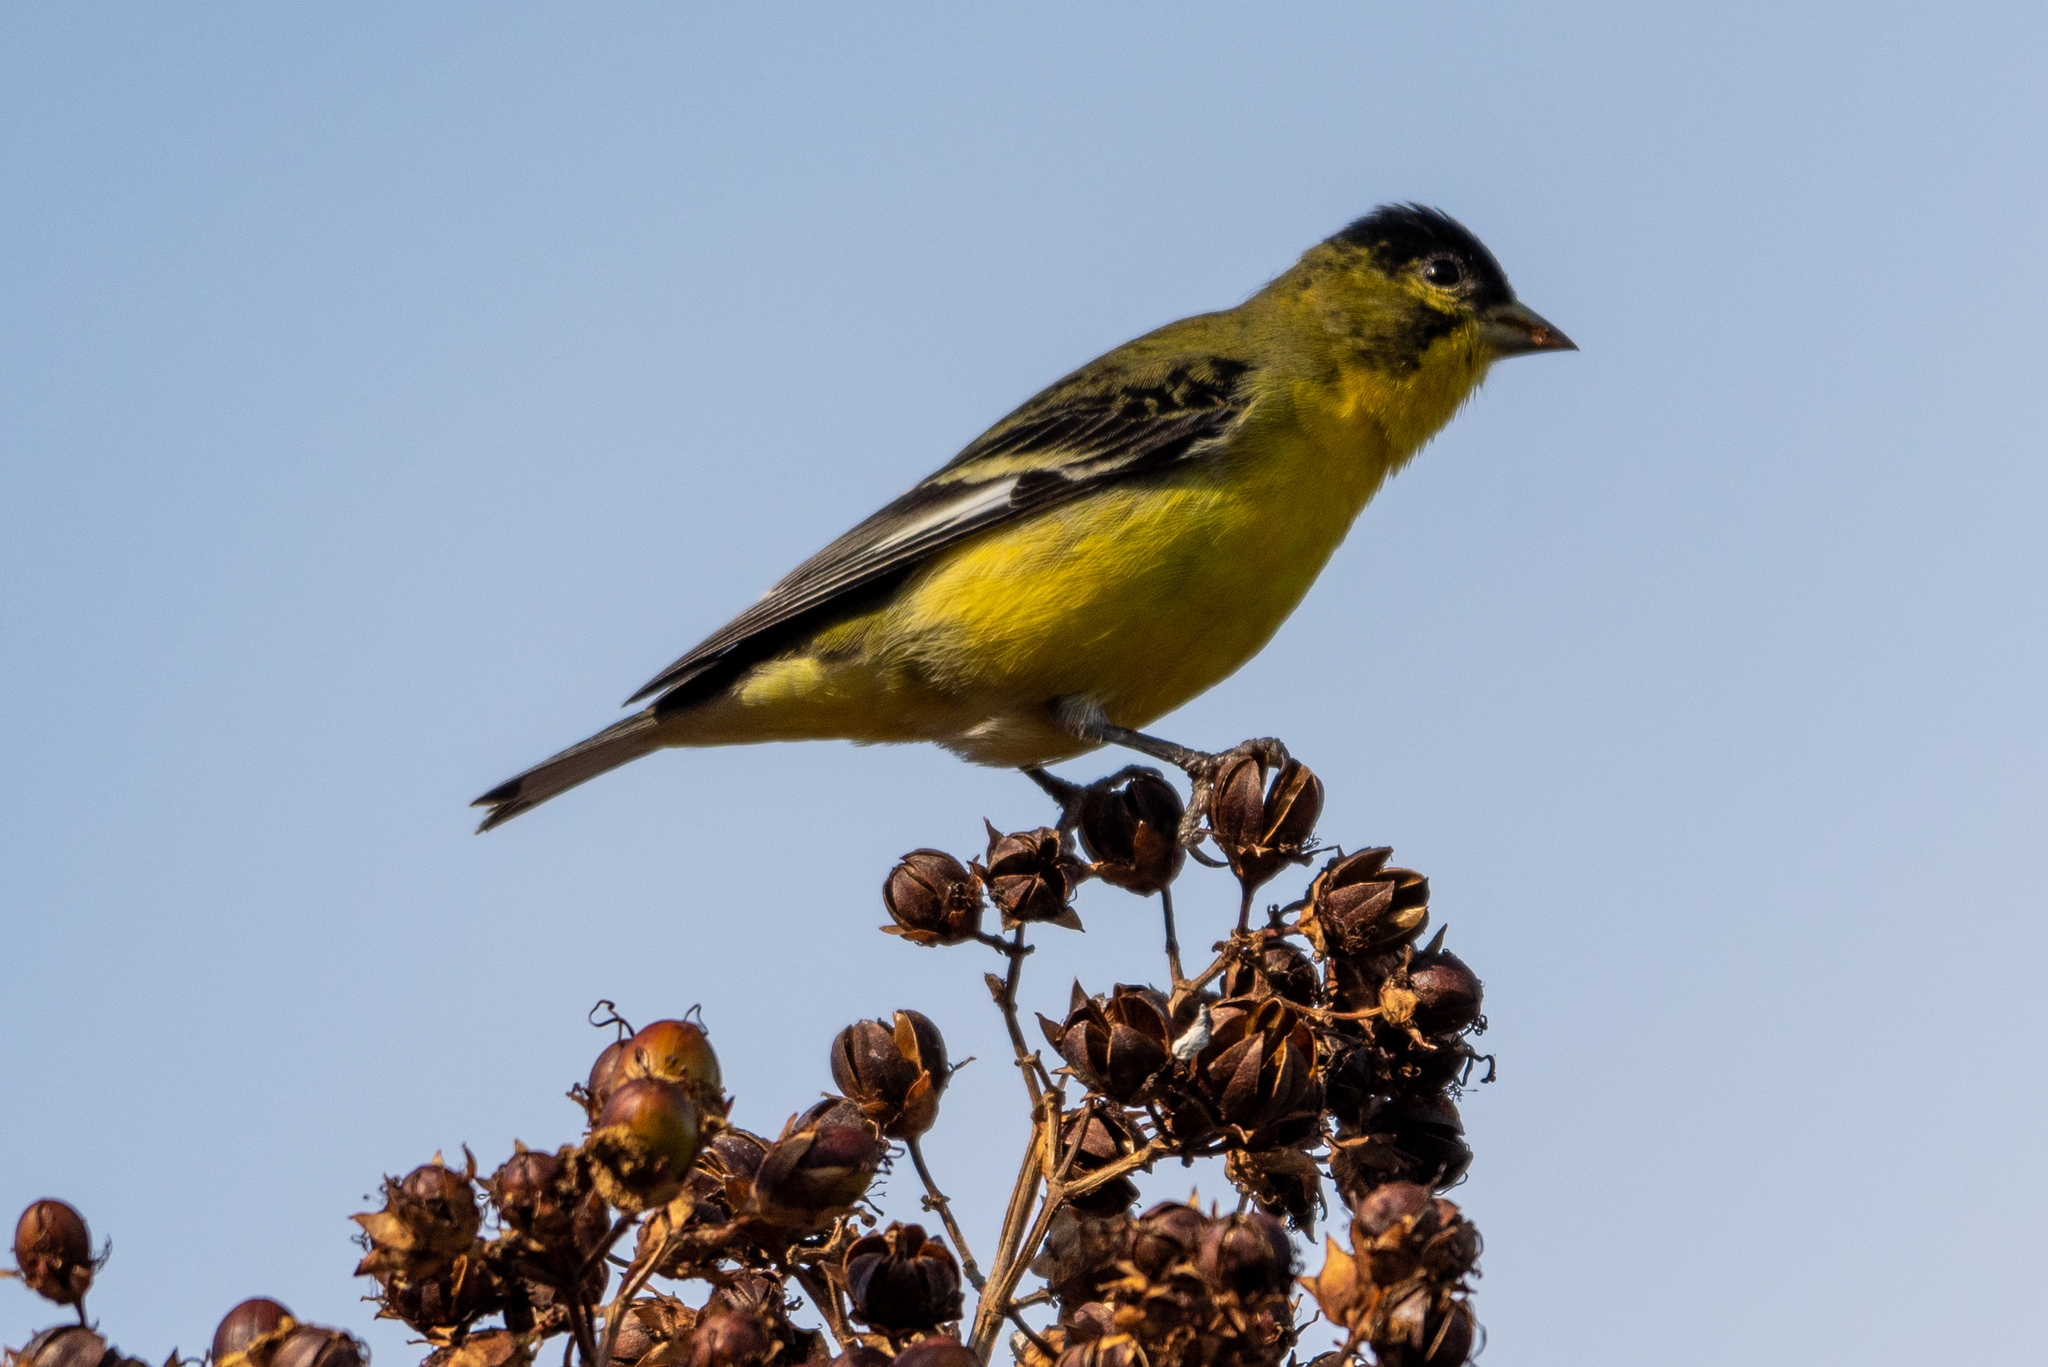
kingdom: Animalia
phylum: Chordata
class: Aves
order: Passeriformes
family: Fringillidae
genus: Spinus
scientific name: Spinus psaltria
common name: Lesser goldfinch
